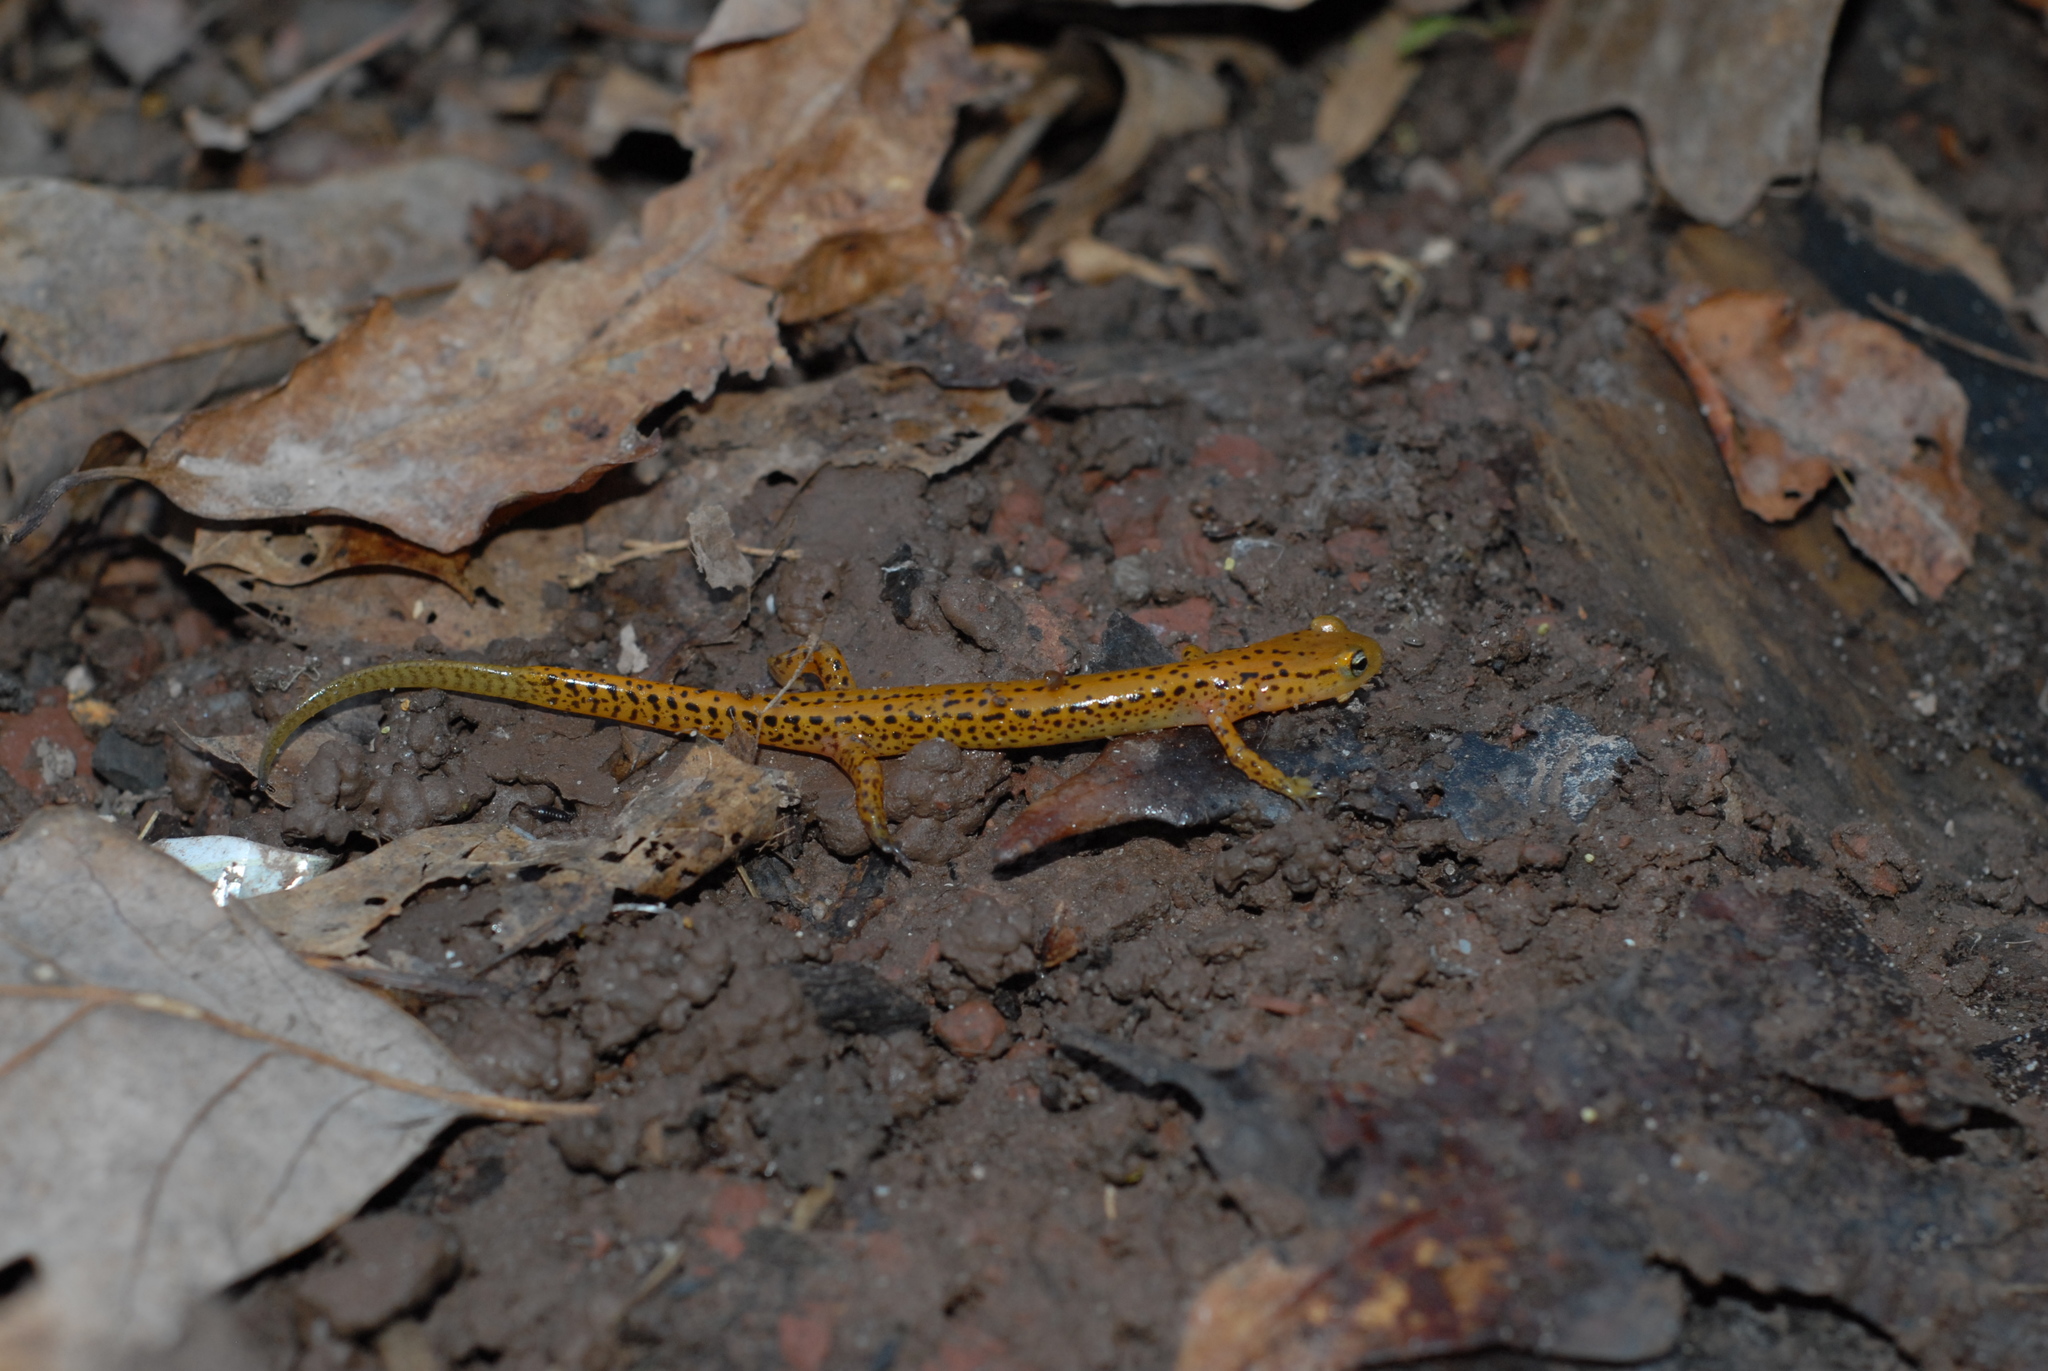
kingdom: Animalia
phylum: Chordata
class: Amphibia
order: Caudata
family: Plethodontidae
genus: Eurycea
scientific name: Eurycea longicauda
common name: Long-tailed salamander
